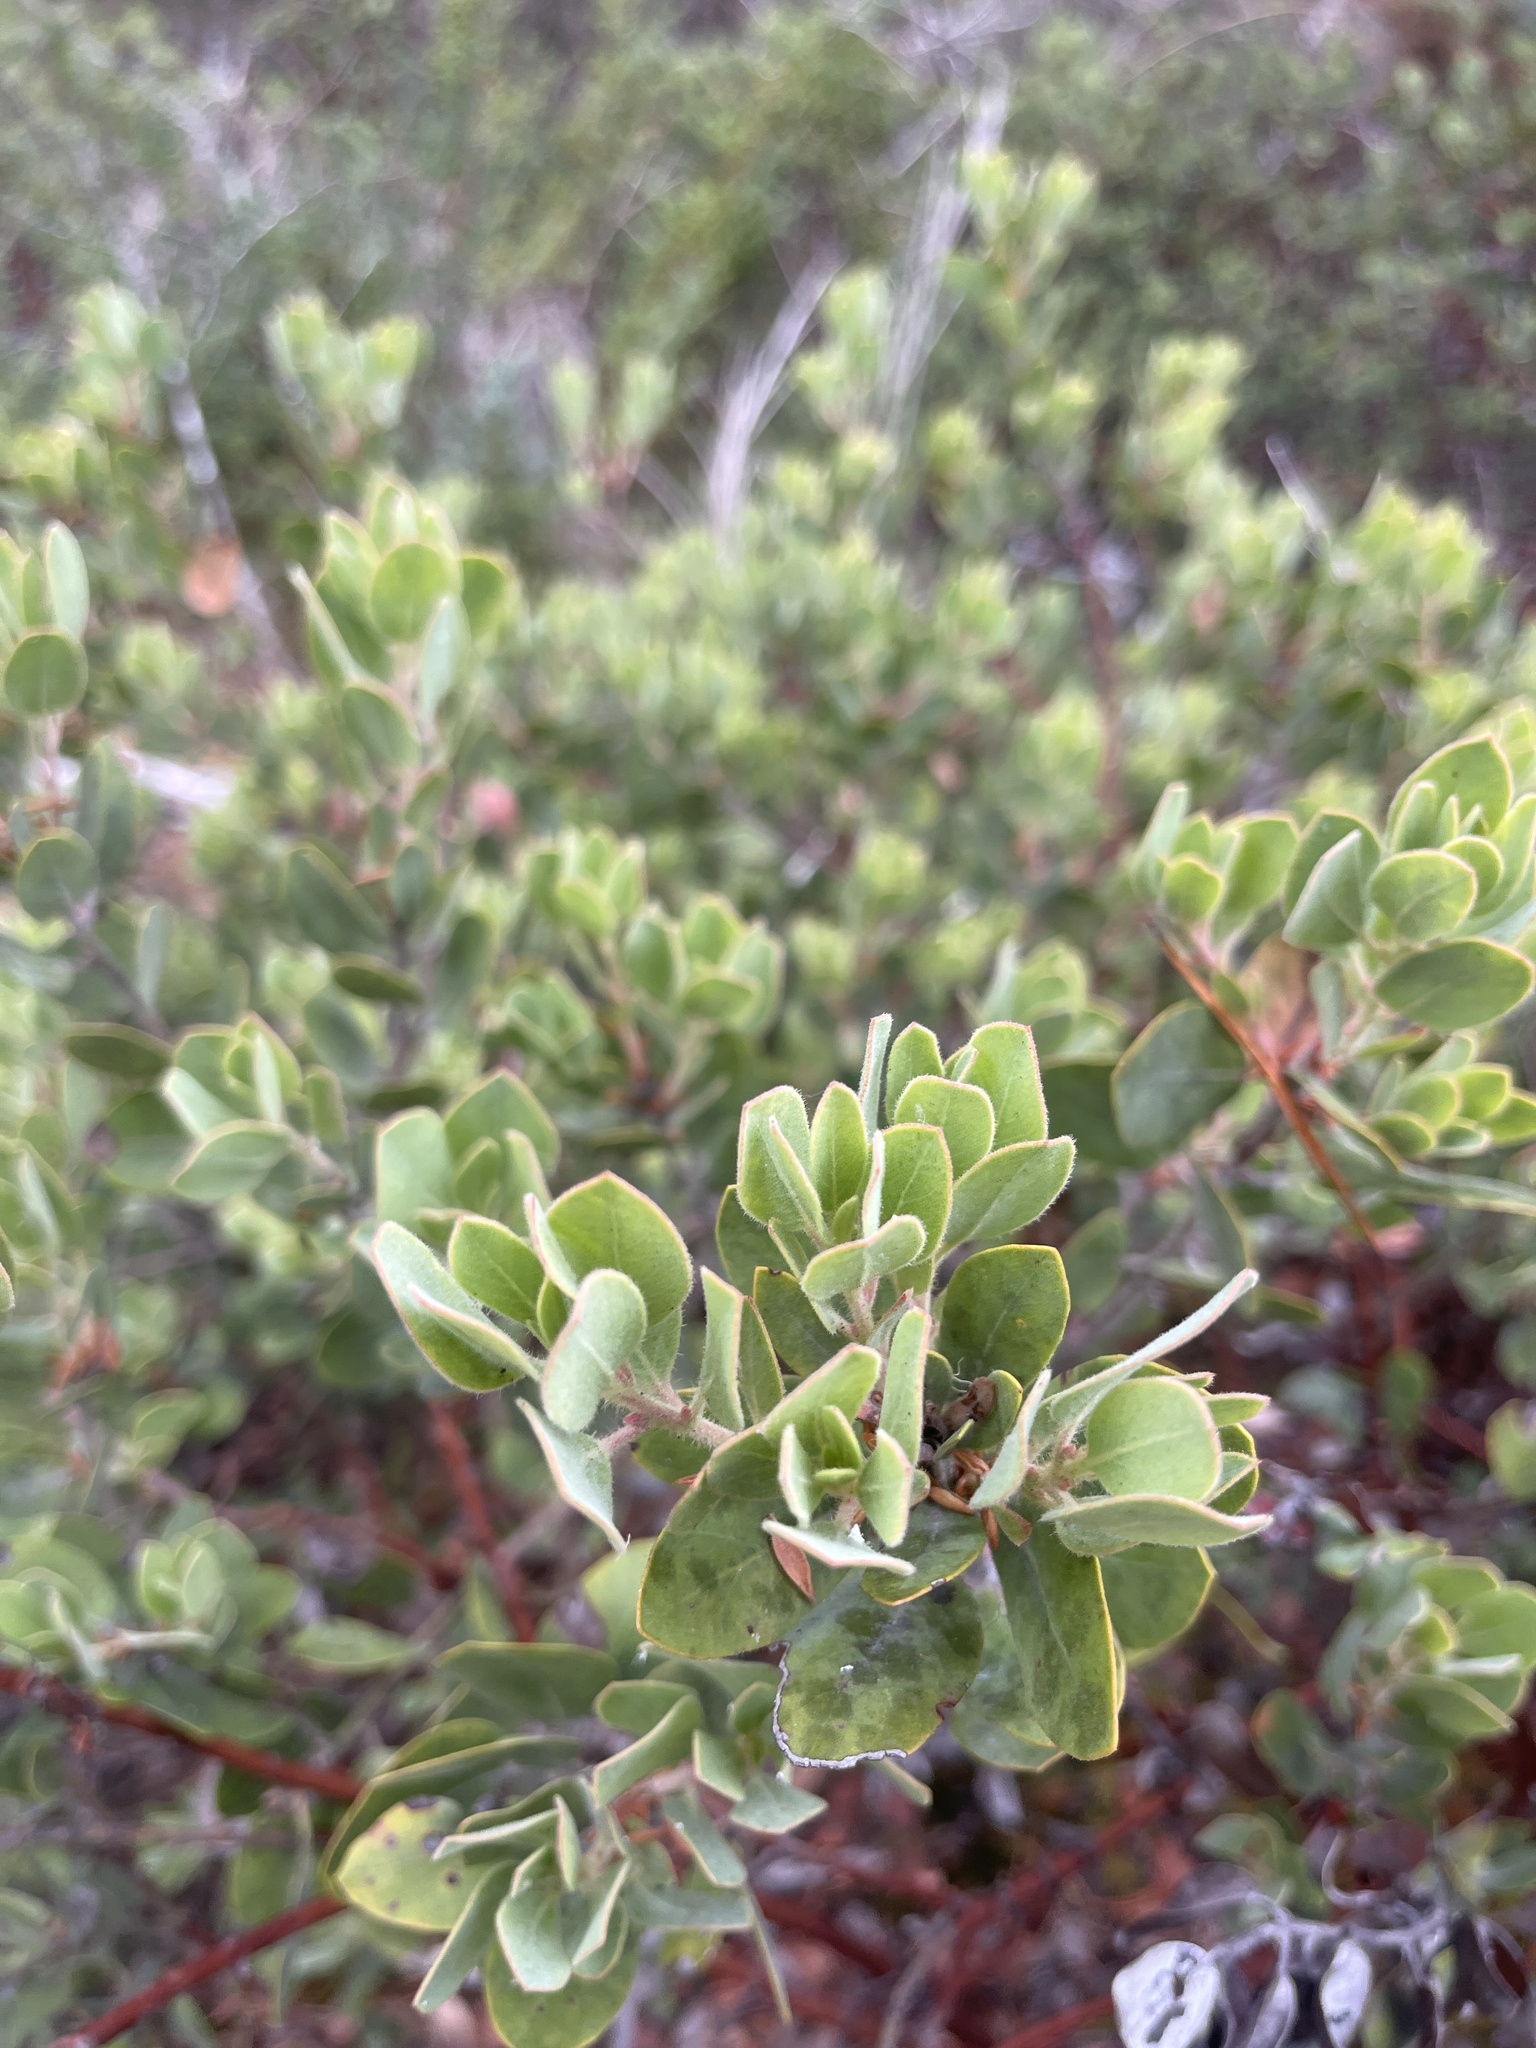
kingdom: Plantae
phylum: Tracheophyta
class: Magnoliopsida
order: Ericales
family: Ericaceae
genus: Arctostaphylos
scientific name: Arctostaphylos columbiana
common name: Bristly bearberry
